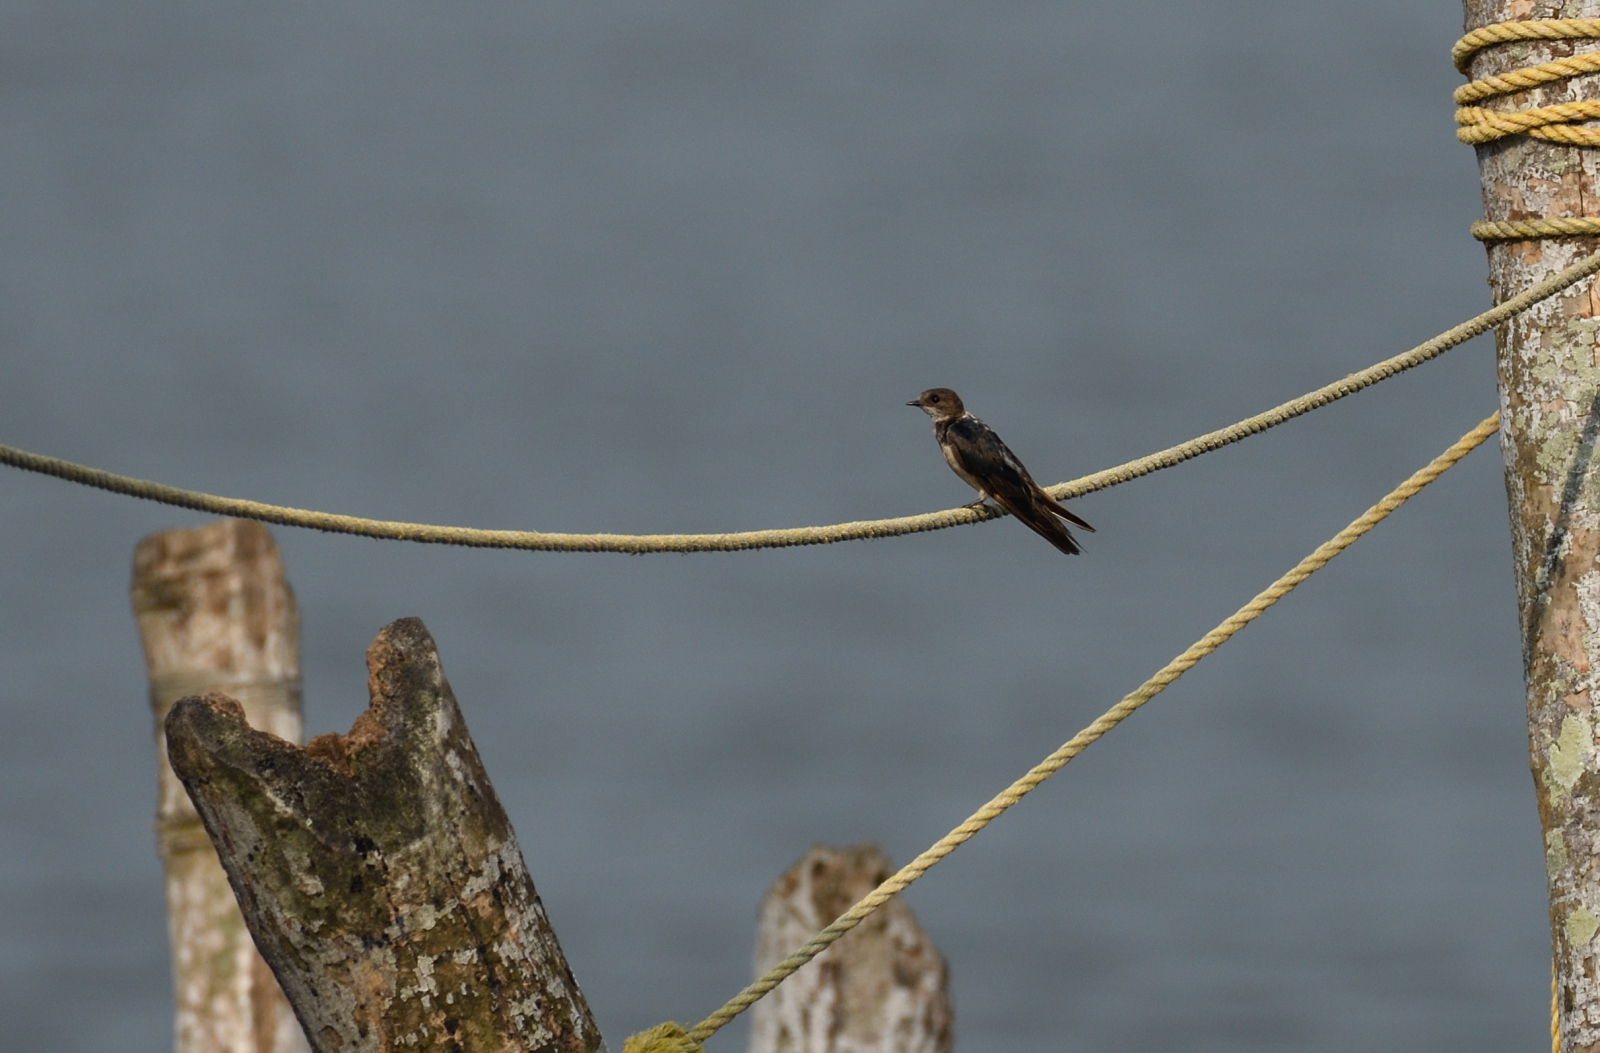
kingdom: Animalia
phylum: Chordata
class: Aves
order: Passeriformes
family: Hirundinidae
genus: Hirundo
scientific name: Hirundo rustica
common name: Barn swallow
